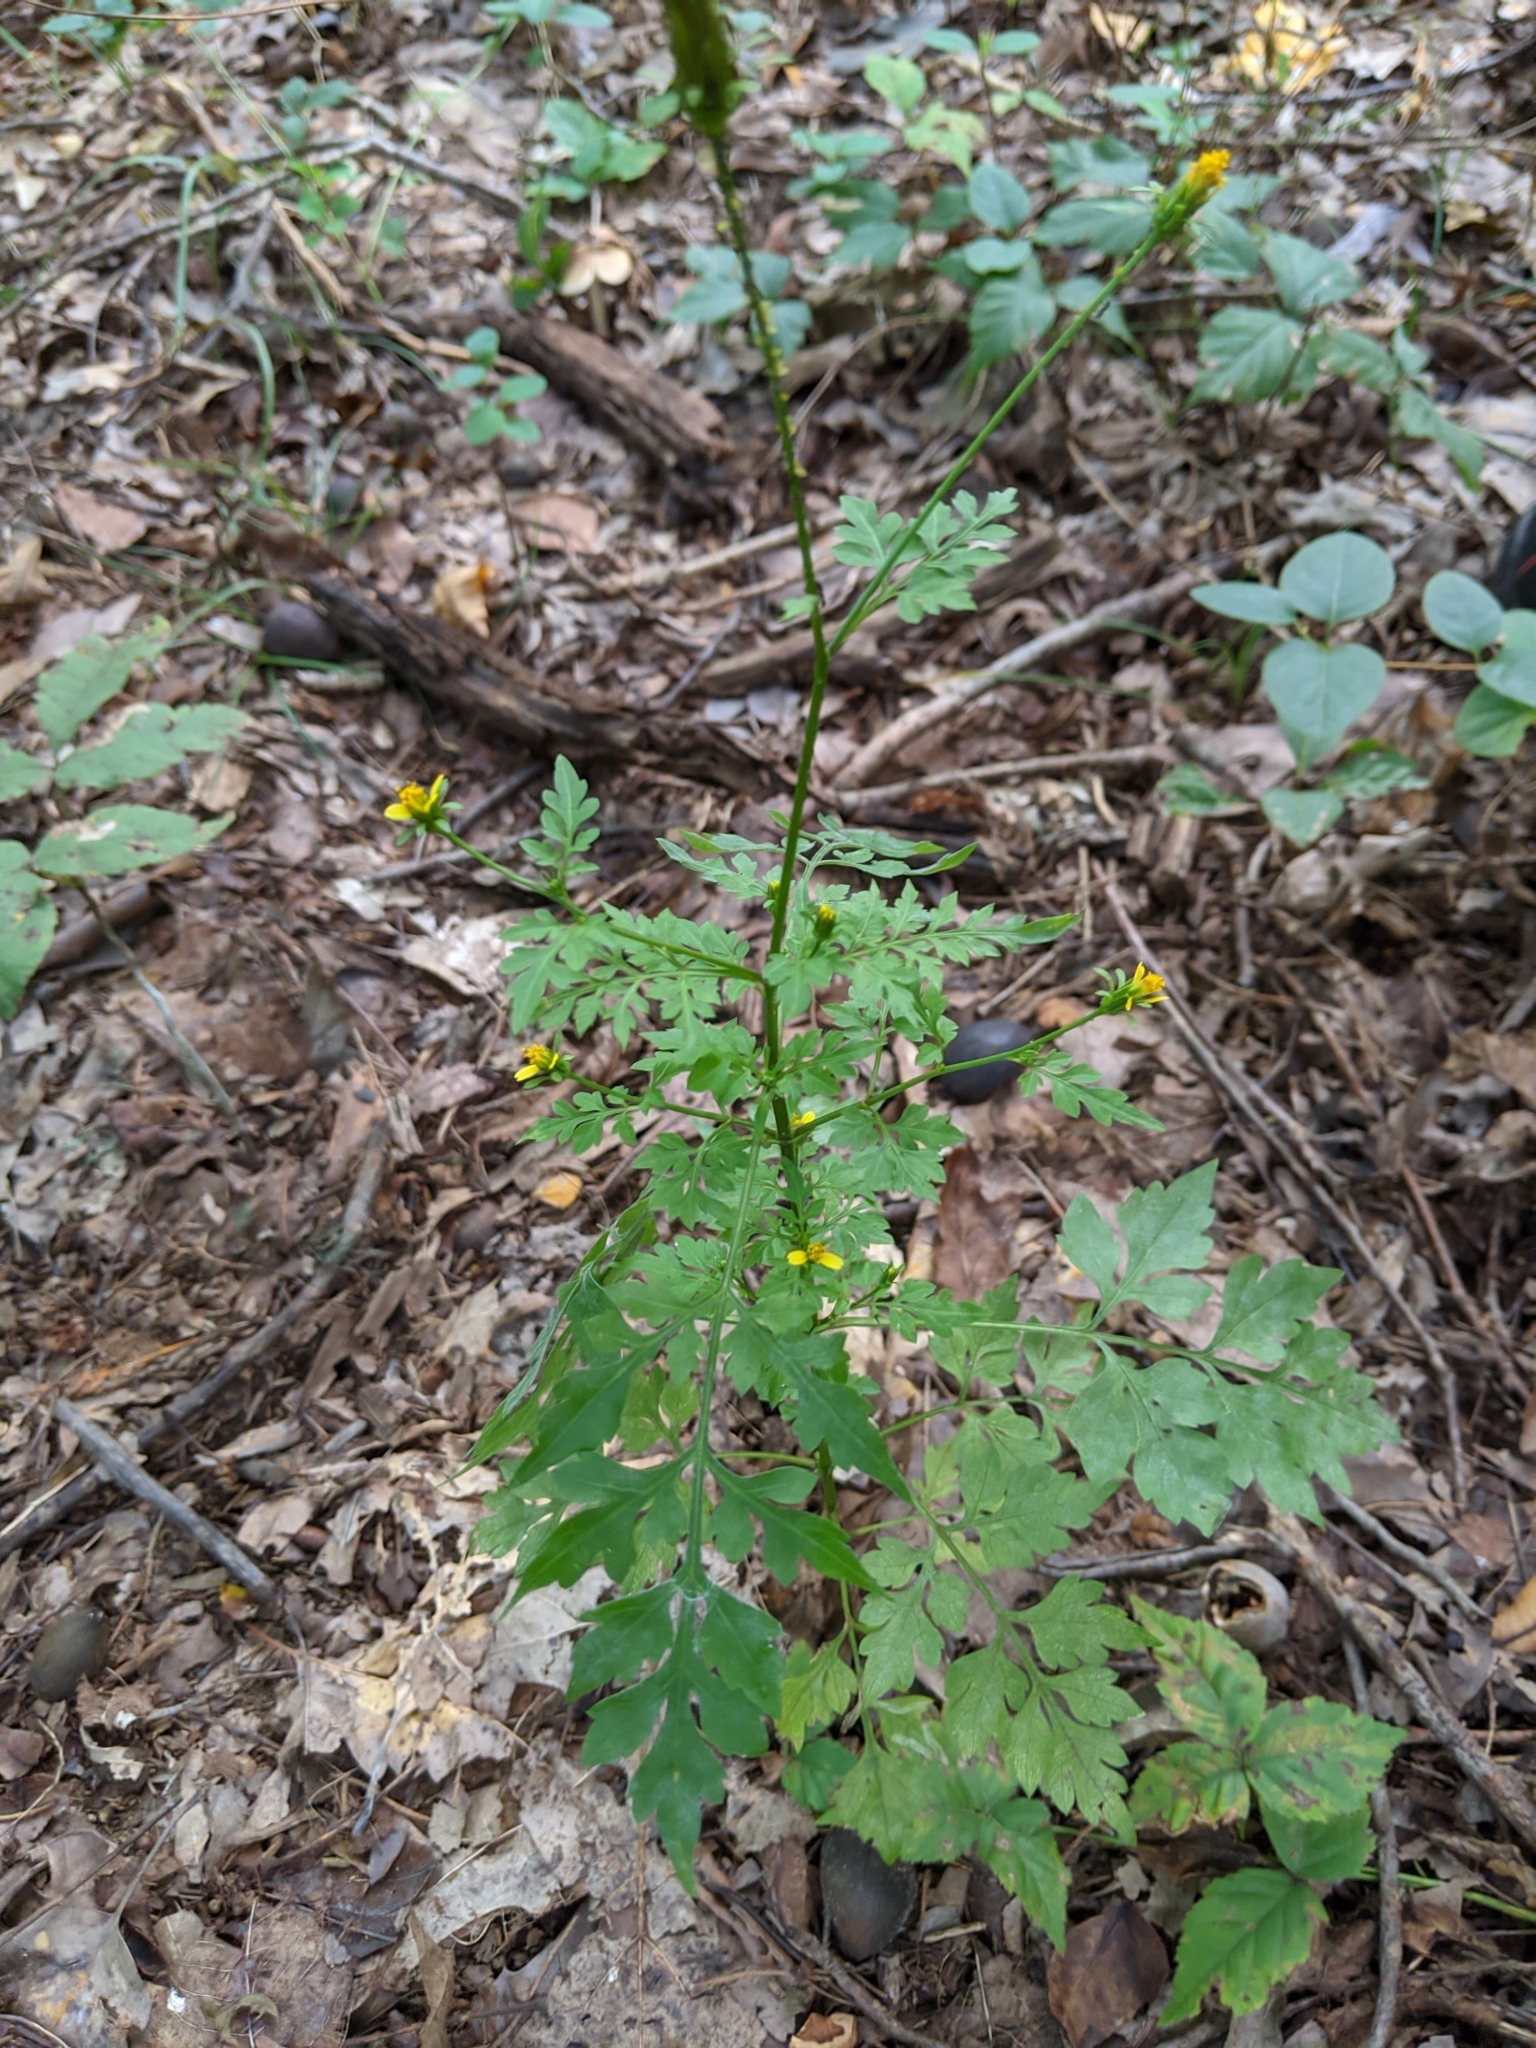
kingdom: Plantae
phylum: Tracheophyta
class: Magnoliopsida
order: Asterales
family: Asteraceae
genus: Bidens
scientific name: Bidens bipinnata
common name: Spanish-needles
